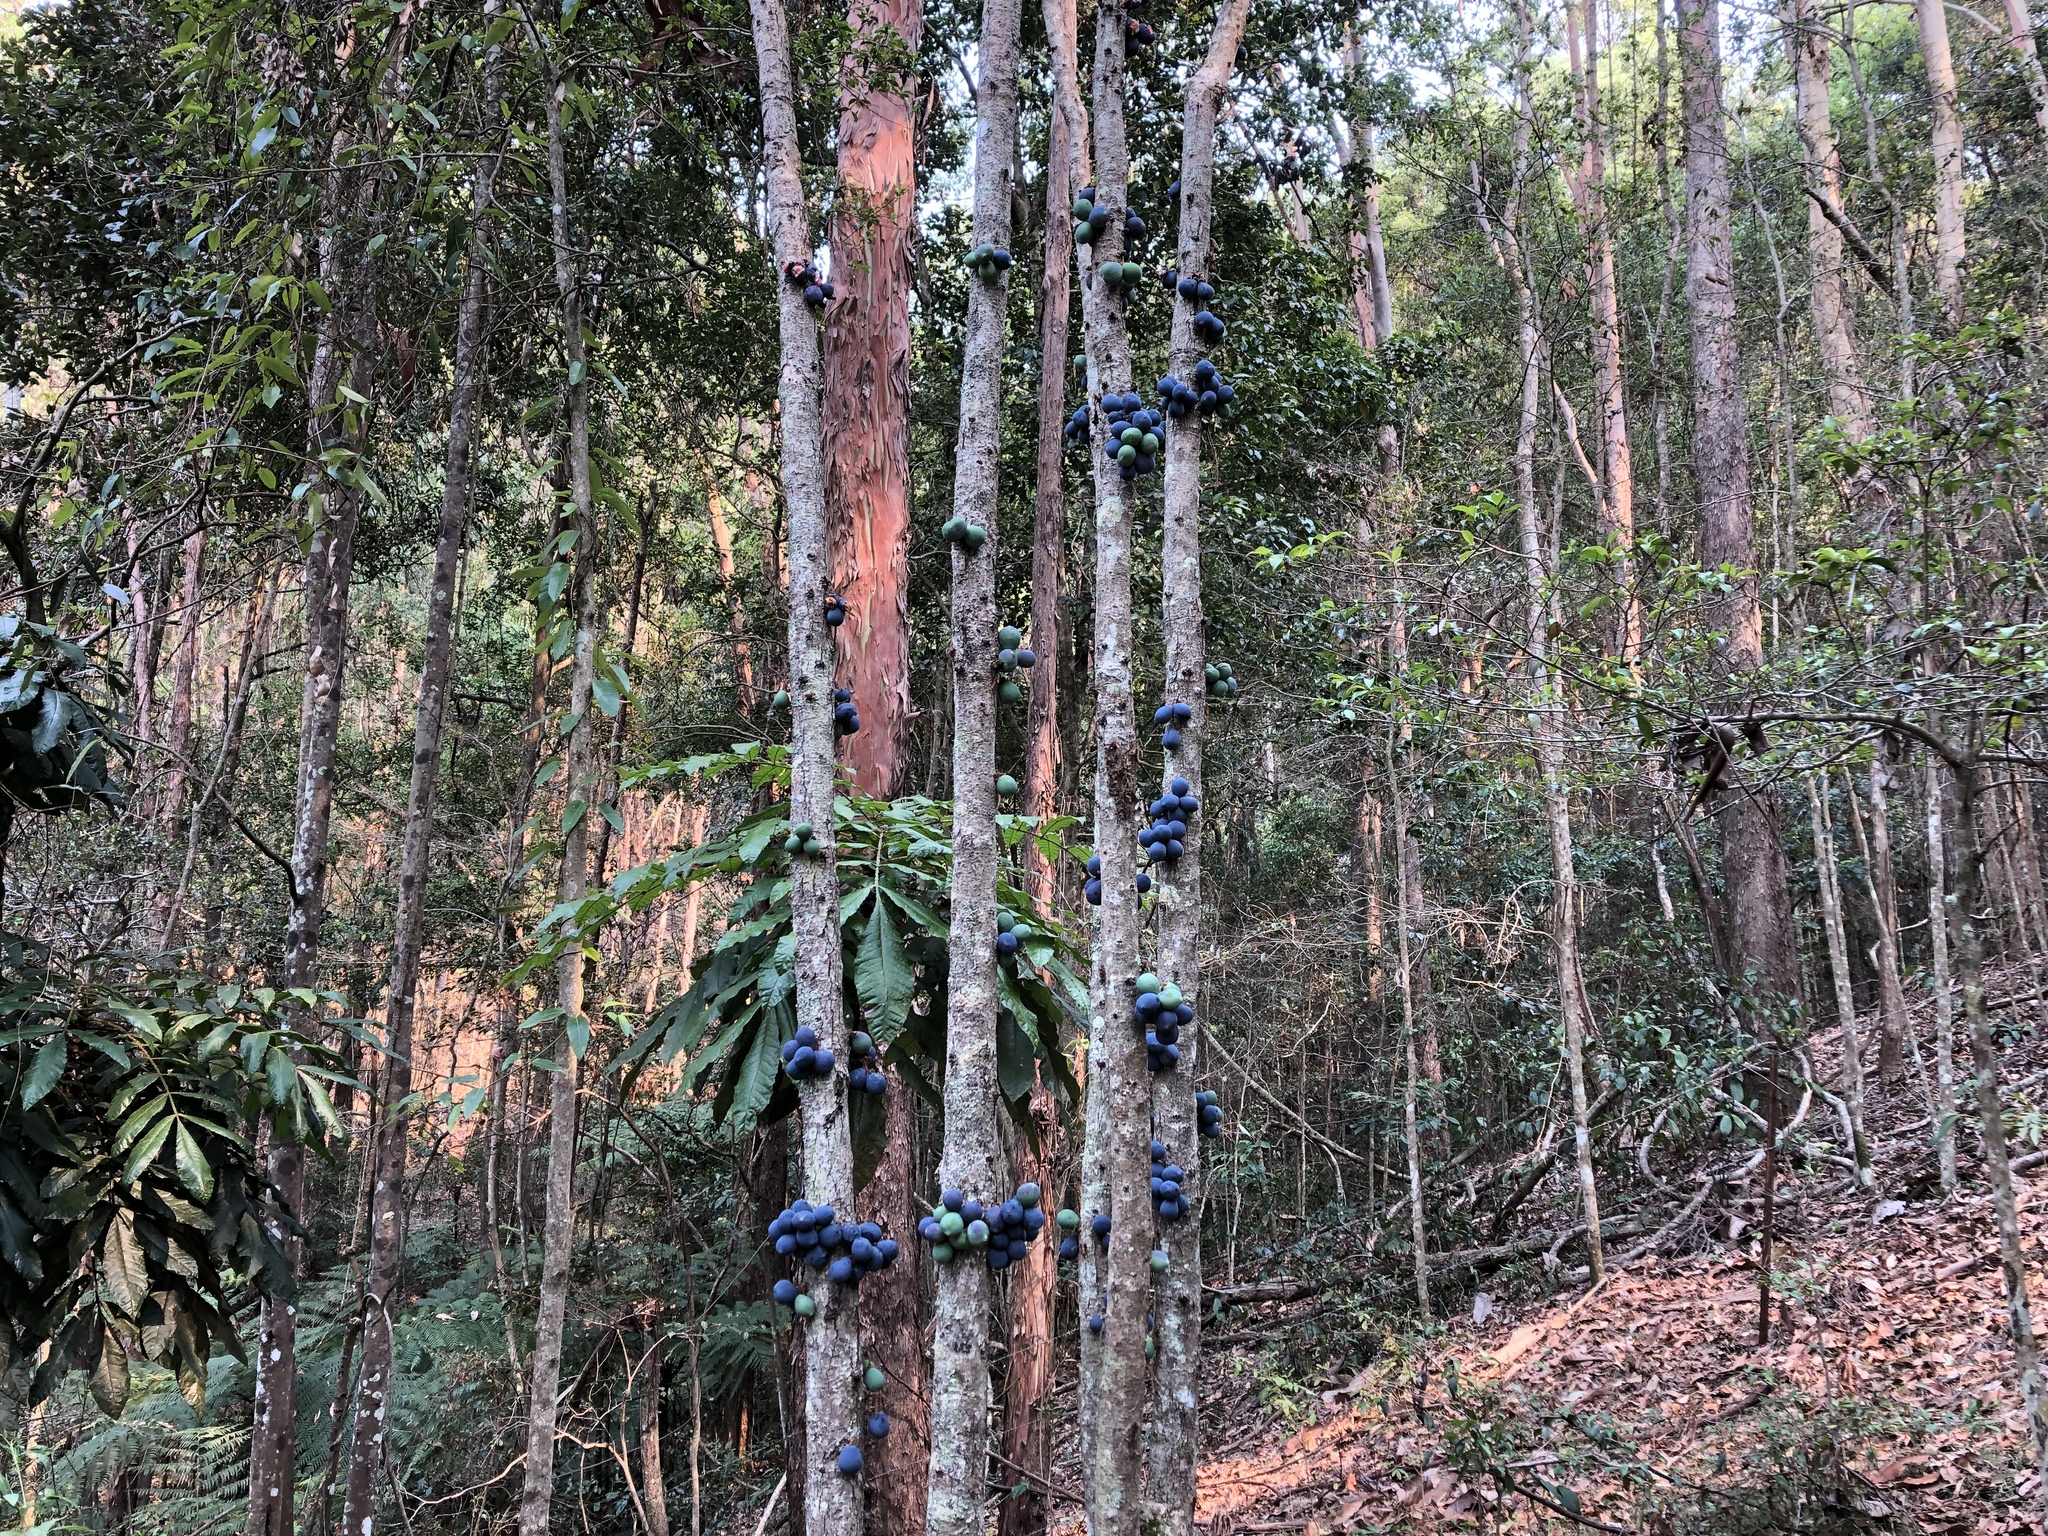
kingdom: Plantae
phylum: Tracheophyta
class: Magnoliopsida
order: Oxalidales
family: Cunoniaceae
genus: Davidsonia
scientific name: Davidsonia jerseyana
